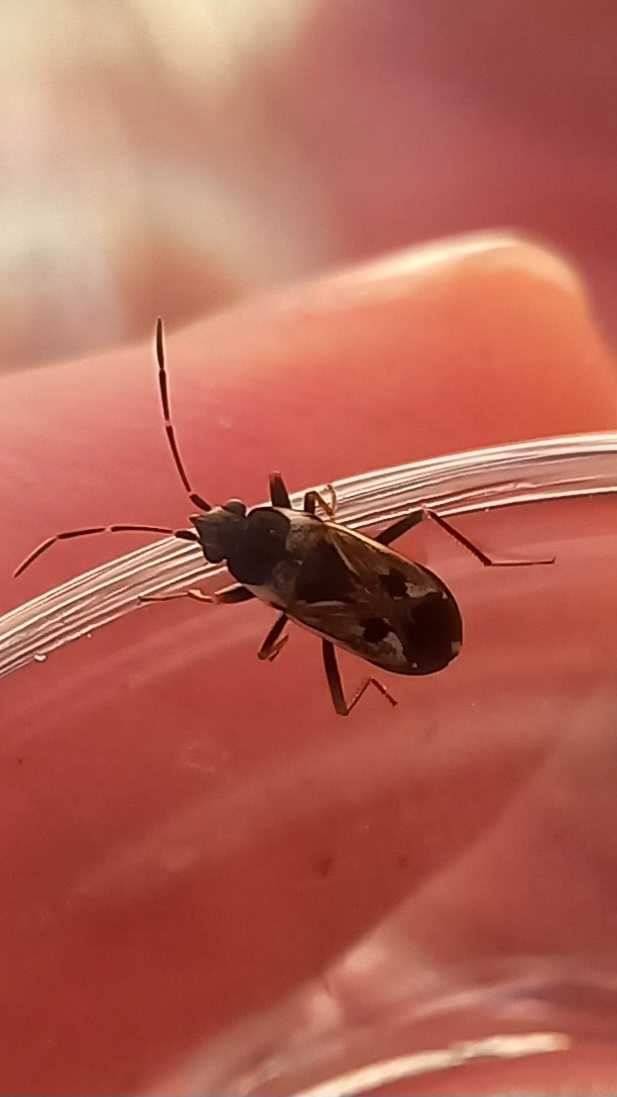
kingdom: Animalia
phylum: Arthropoda
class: Insecta
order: Hemiptera
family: Rhyparochromidae
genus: Rhyparochromus
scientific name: Rhyparochromus vulgaris
